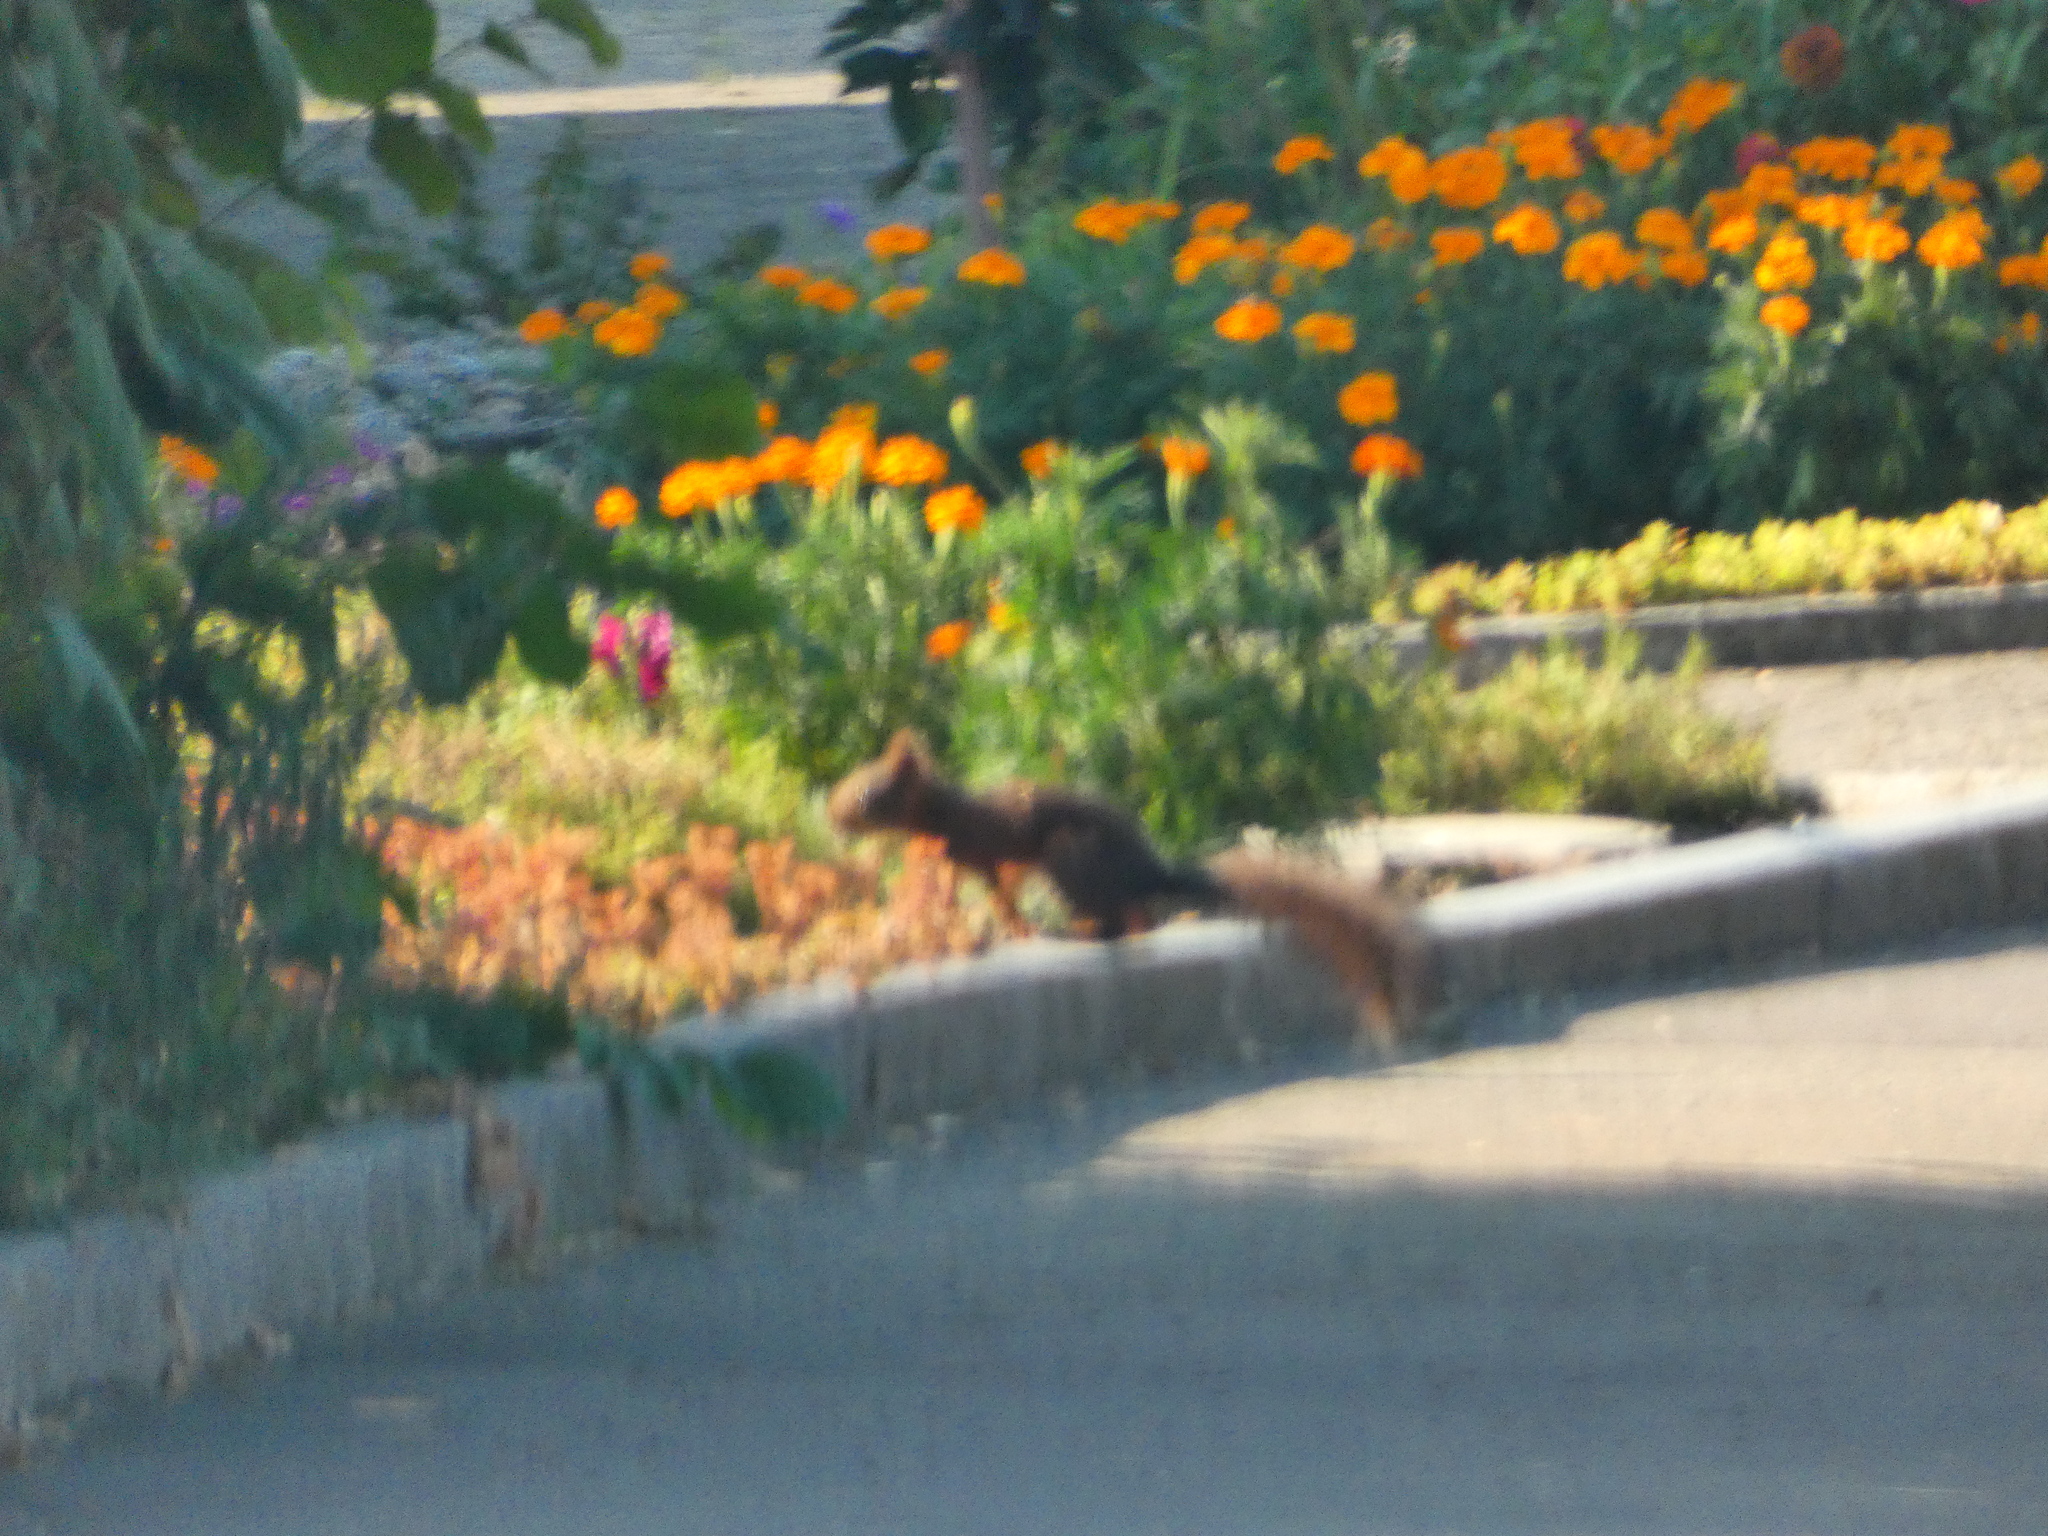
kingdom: Animalia
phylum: Chordata
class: Mammalia
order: Rodentia
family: Sciuridae
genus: Sciurus
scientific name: Sciurus vulgaris
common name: Eurasian red squirrel
